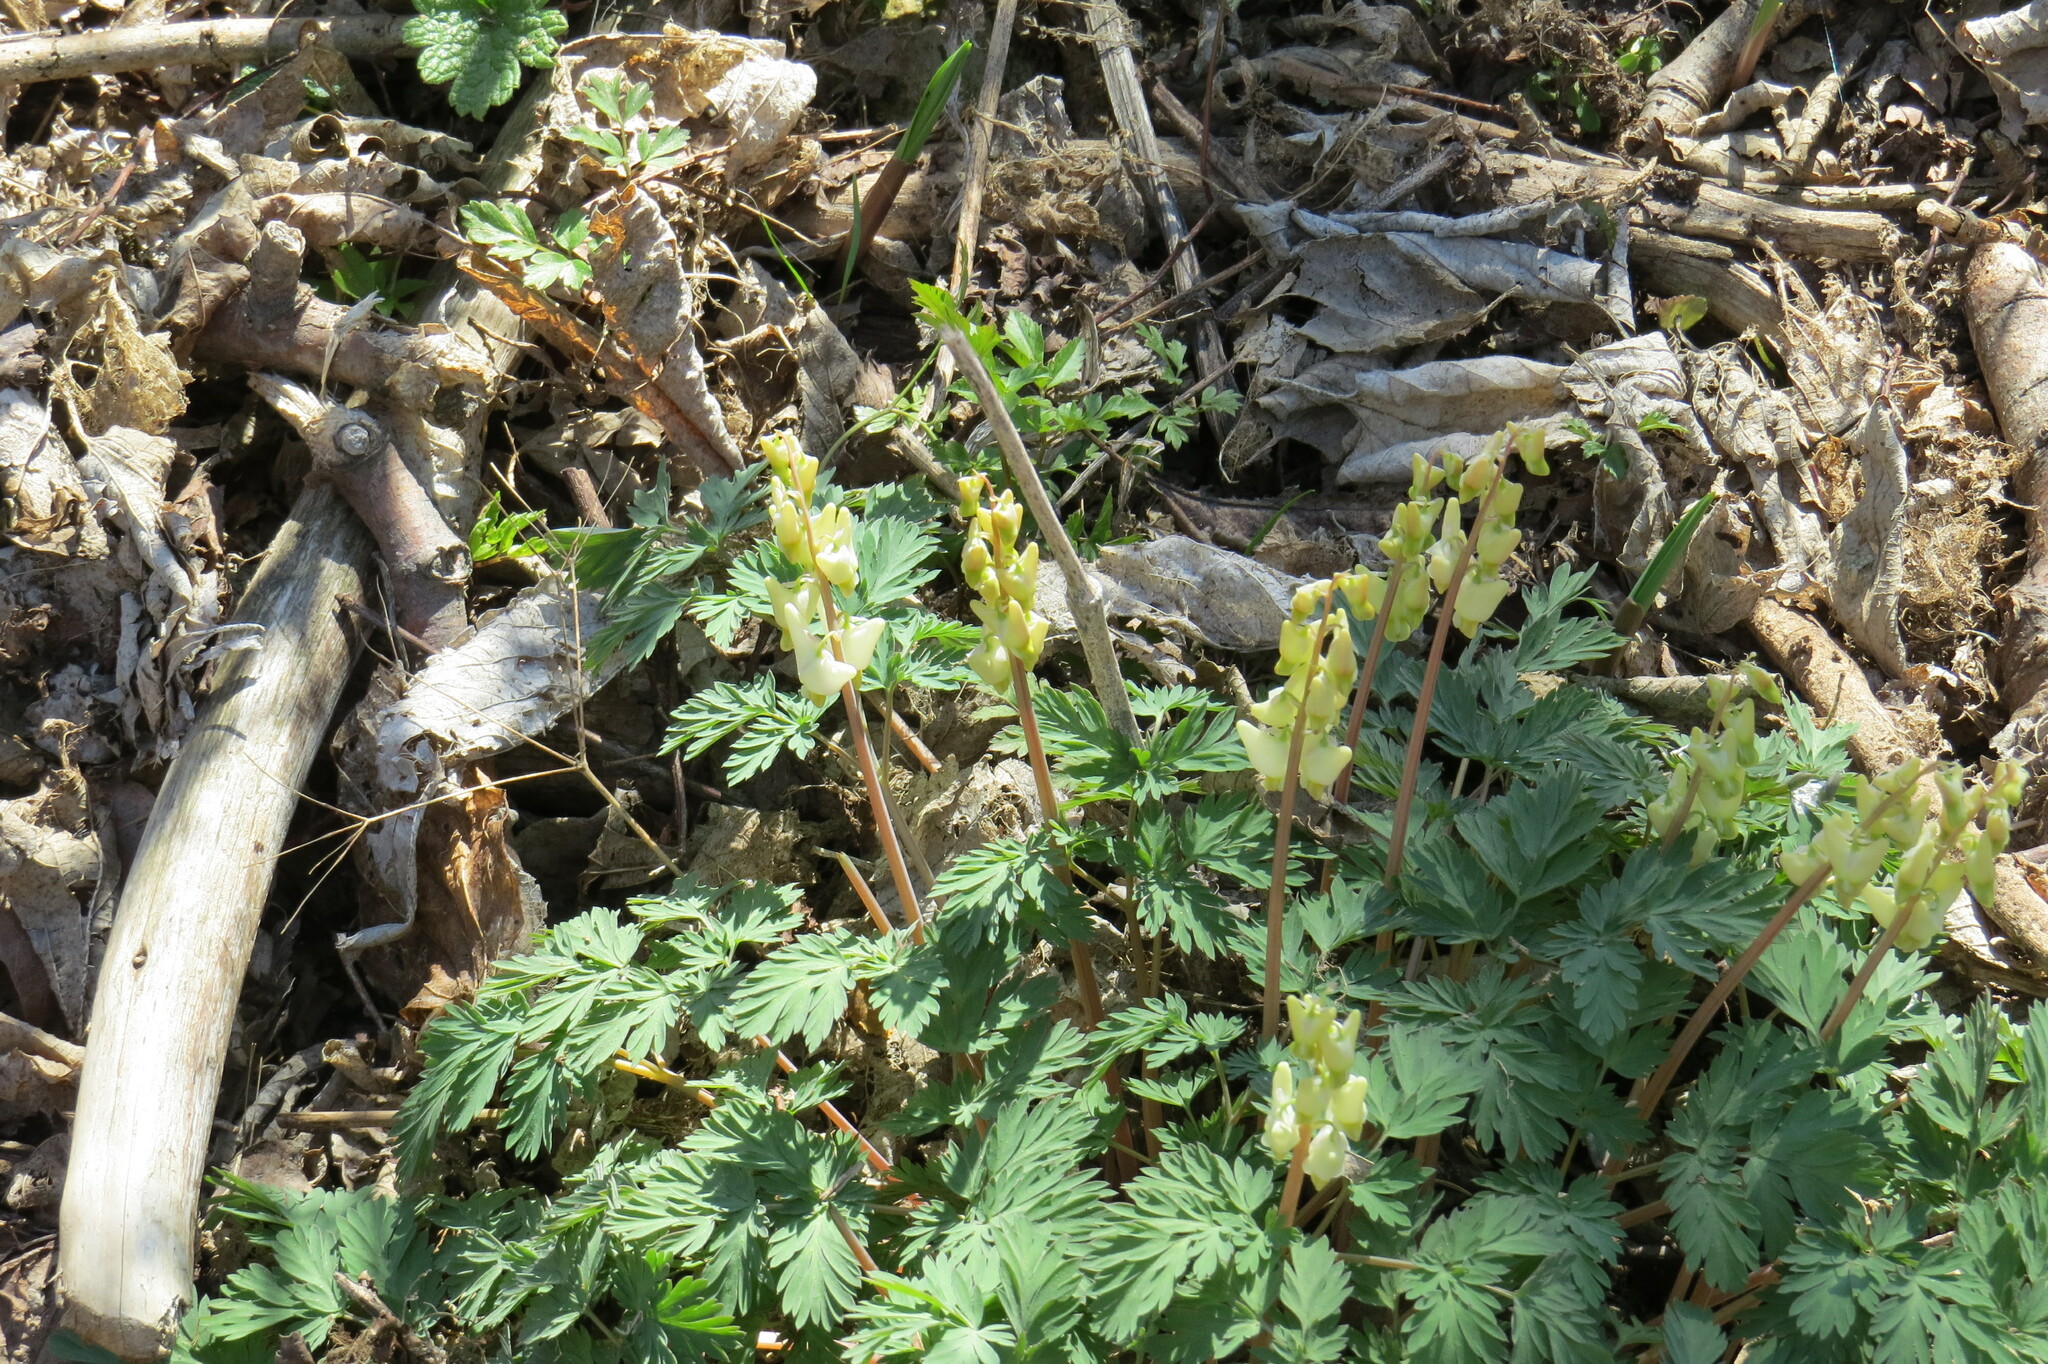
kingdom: Plantae
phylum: Tracheophyta
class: Magnoliopsida
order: Ranunculales
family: Papaveraceae
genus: Dicentra
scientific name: Dicentra cucullaria
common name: Dutchman's breeches
